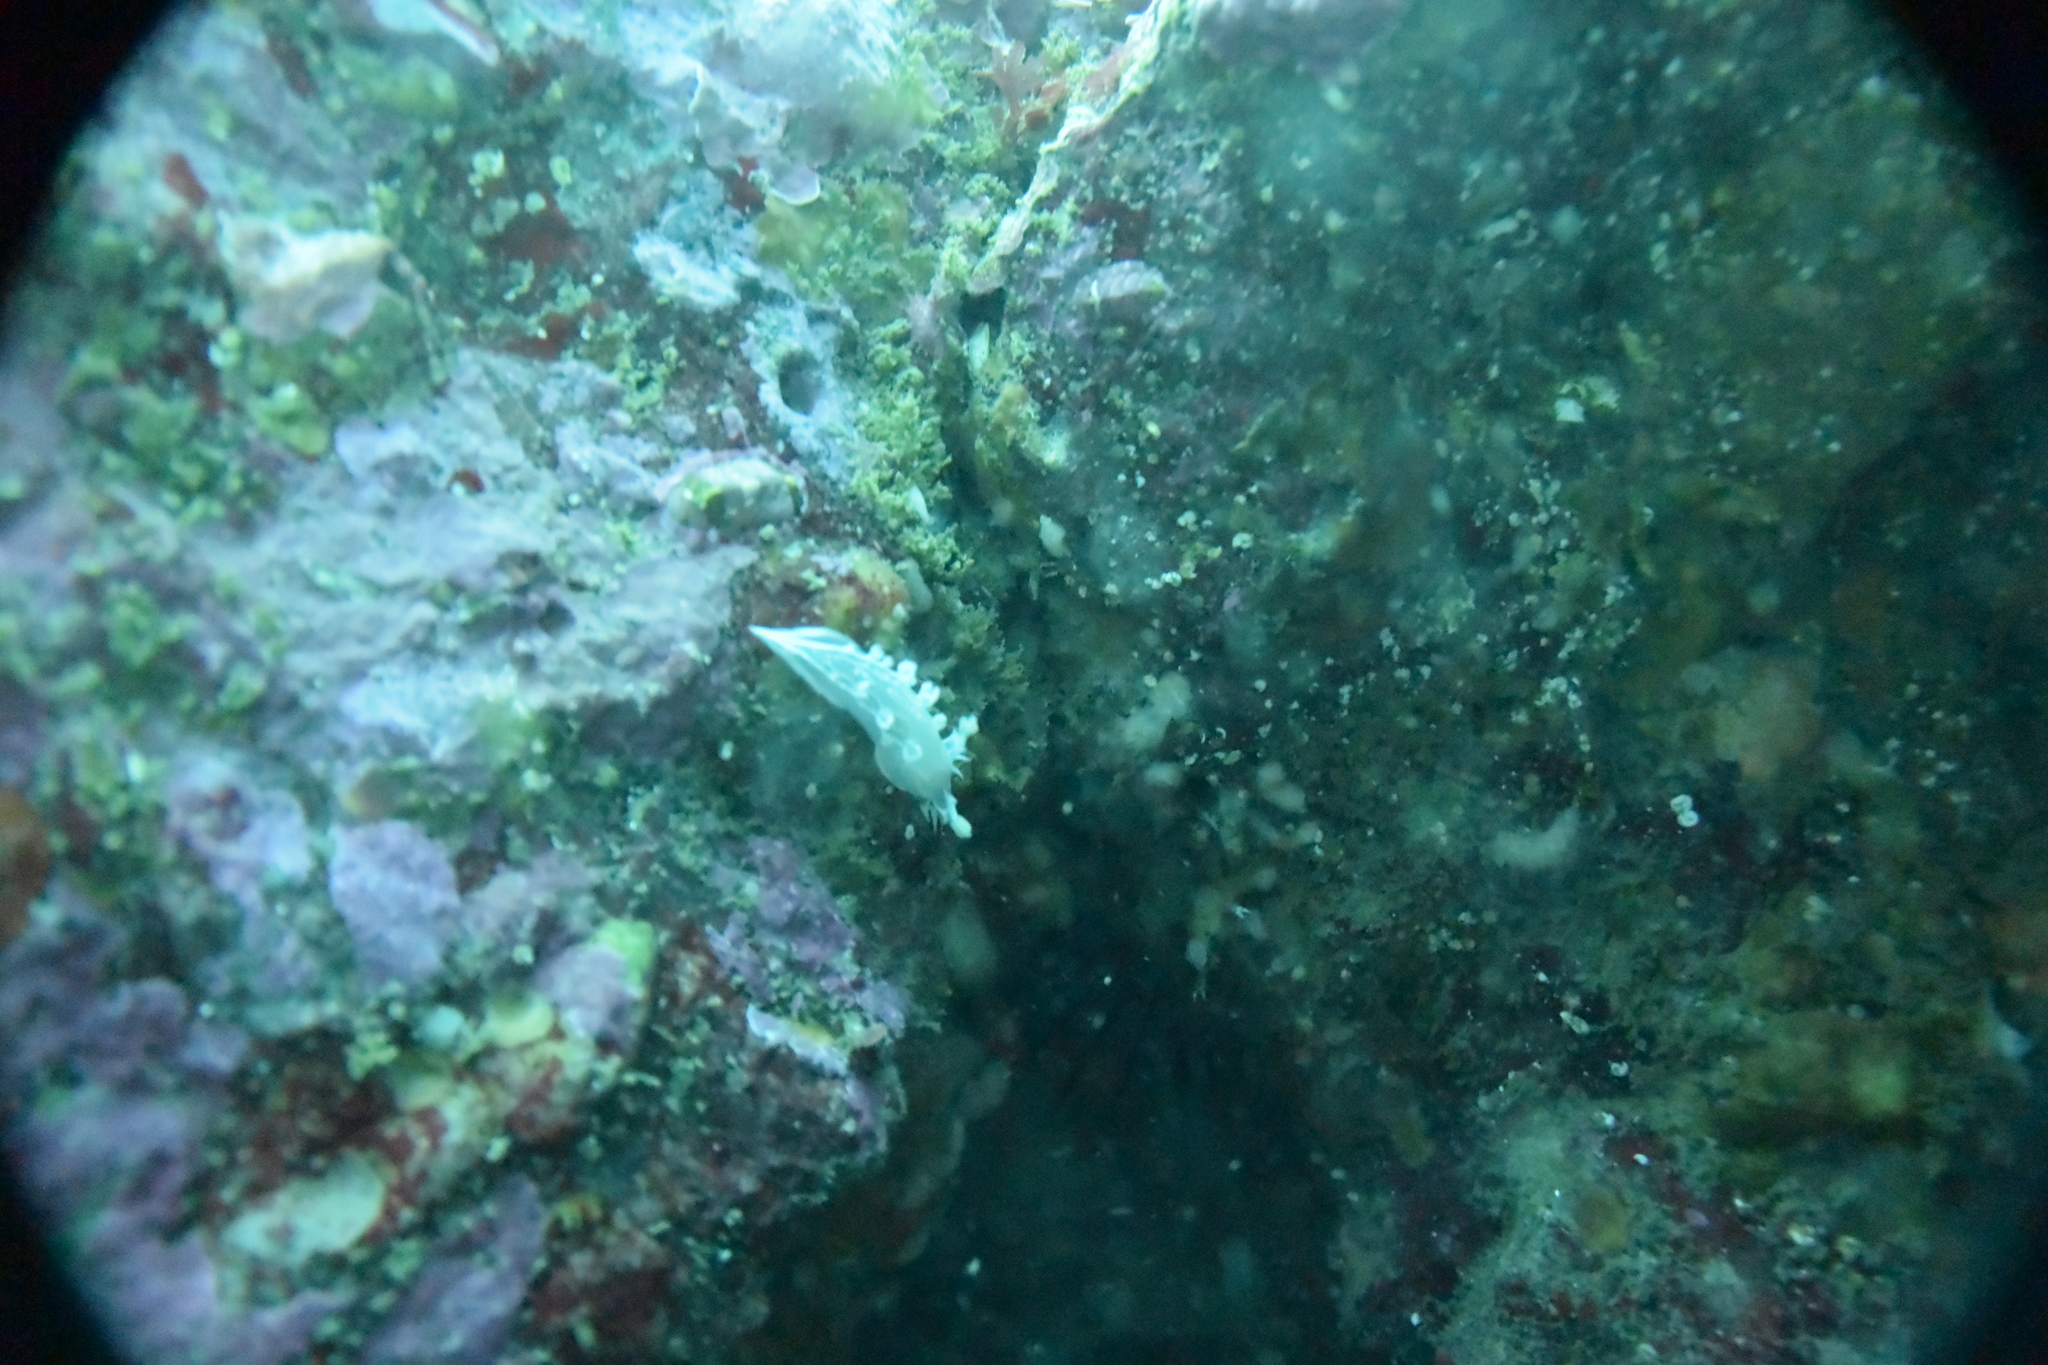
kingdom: Animalia
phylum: Mollusca
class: Gastropoda
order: Nudibranchia
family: Tritoniidae
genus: Tritonia
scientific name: Tritonia festiva
